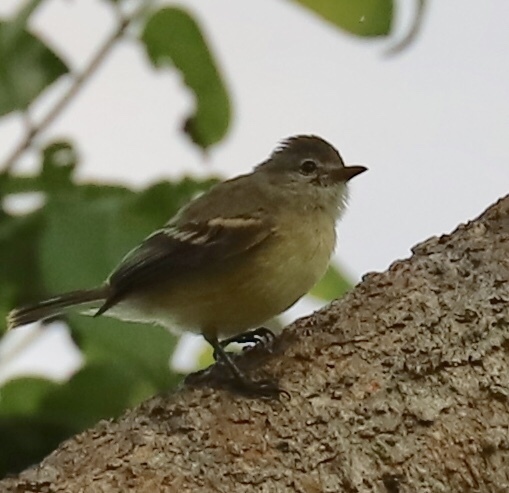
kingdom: Animalia
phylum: Chordata
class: Aves
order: Passeriformes
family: Tyrannidae
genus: Camptostoma
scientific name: Camptostoma obsoletum
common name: Southern beardless-tyrannulet
